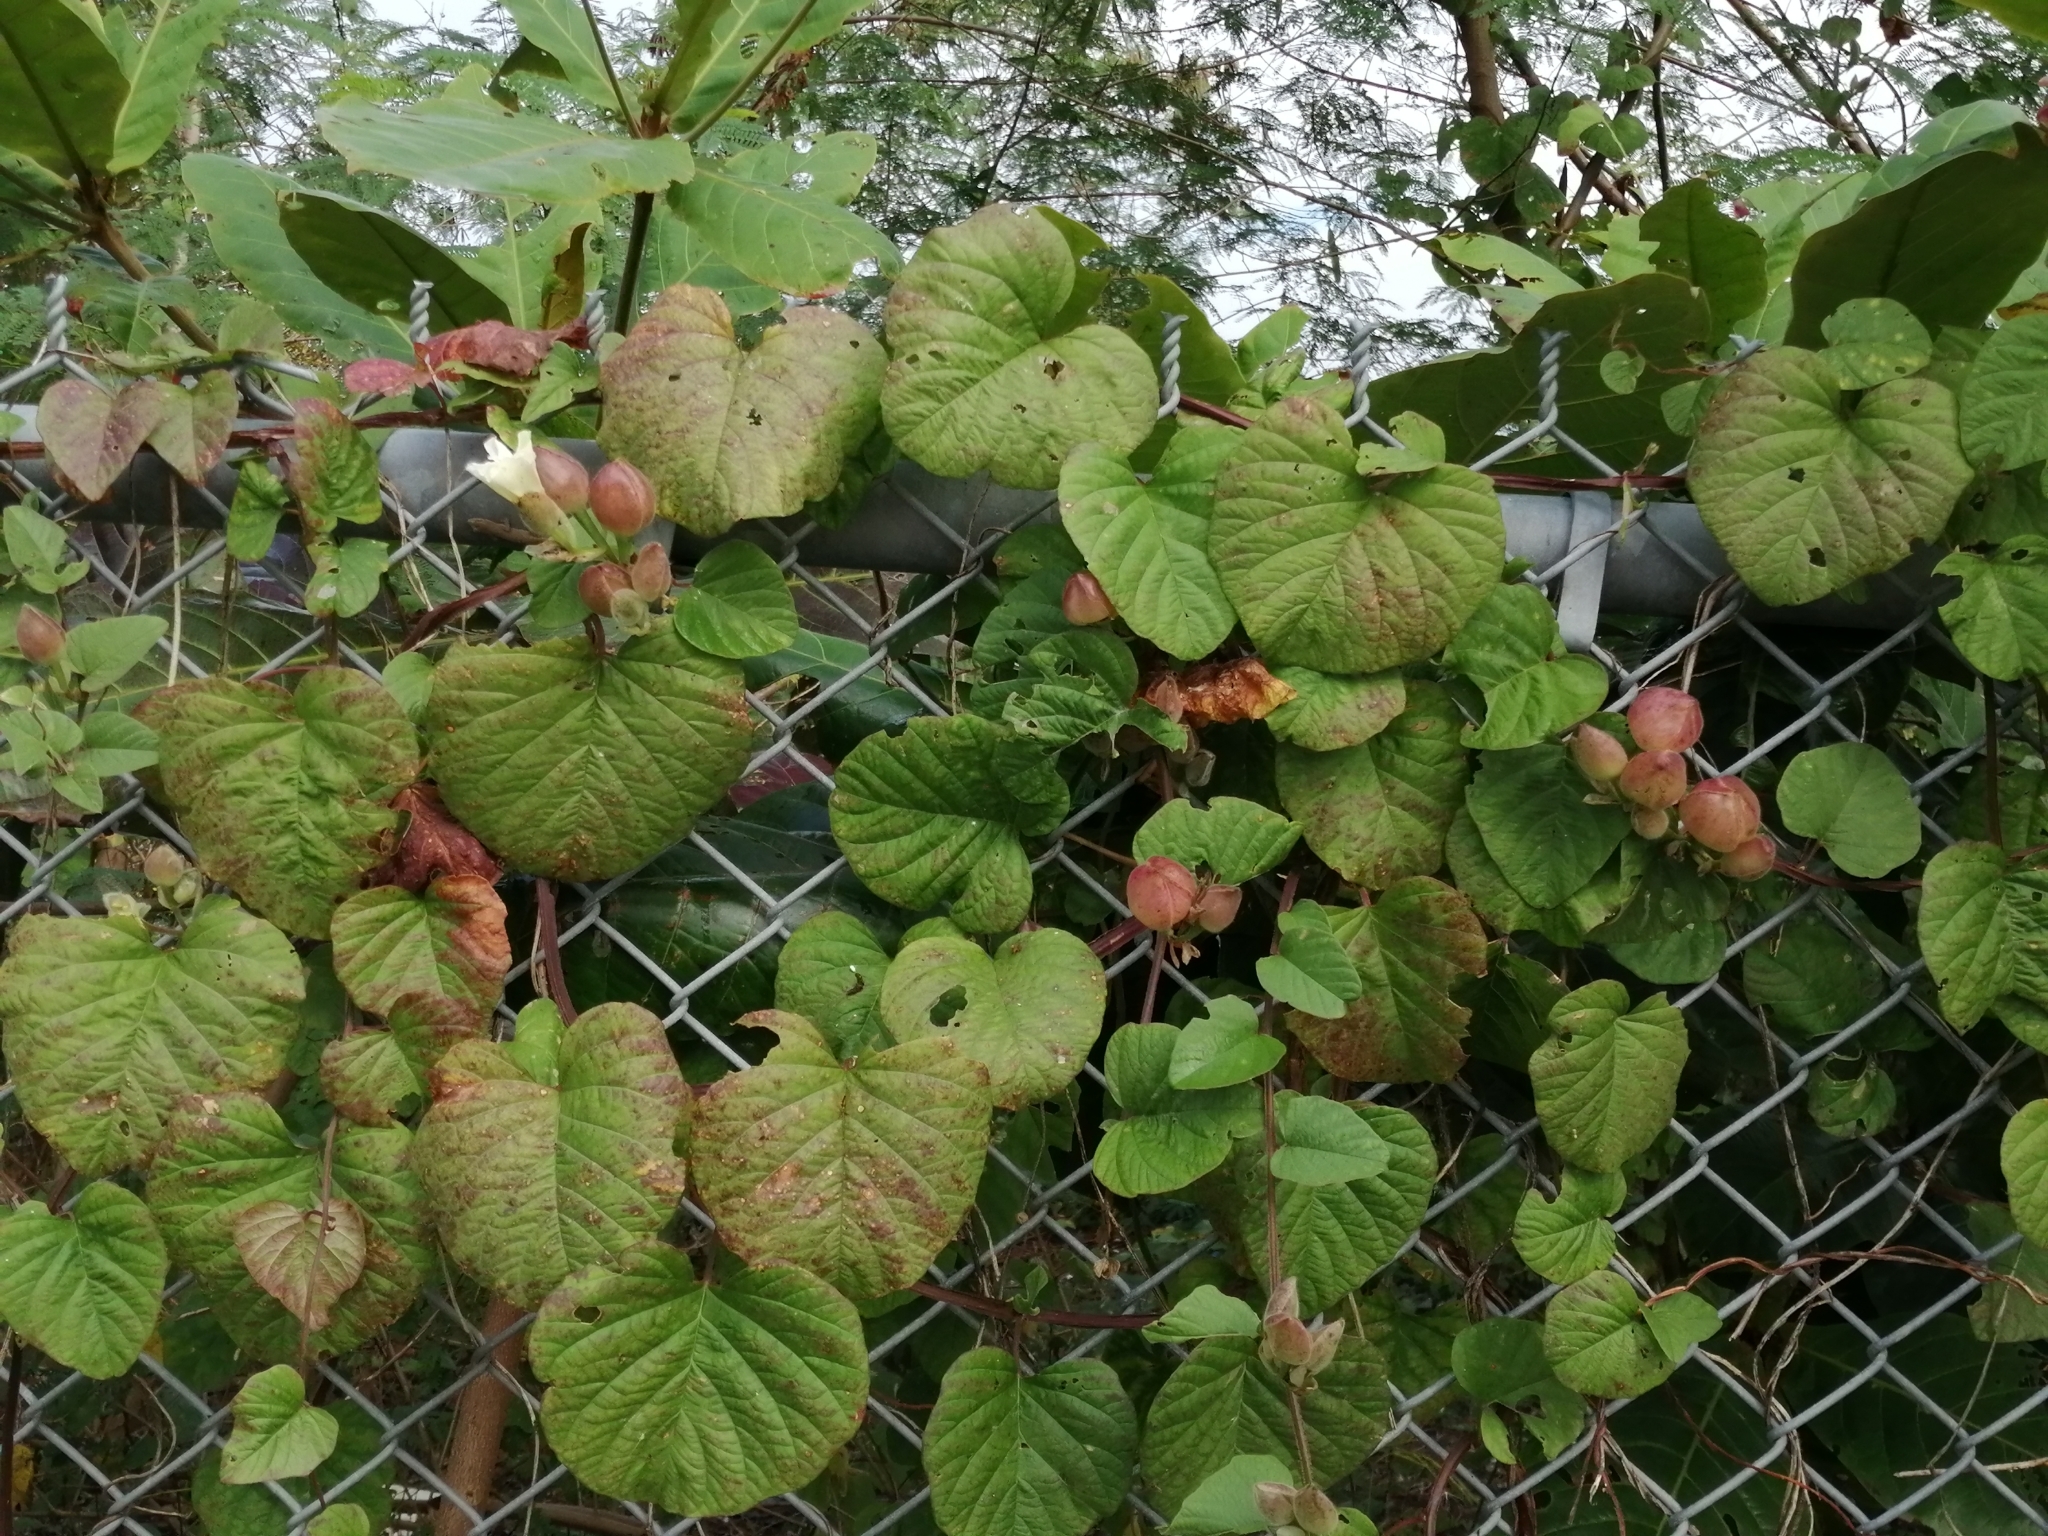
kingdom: Plantae
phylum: Tracheophyta
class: Magnoliopsida
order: Solanales
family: Convolvulaceae
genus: Operculina
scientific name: Operculina turpethum
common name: Transparent wood-rose
